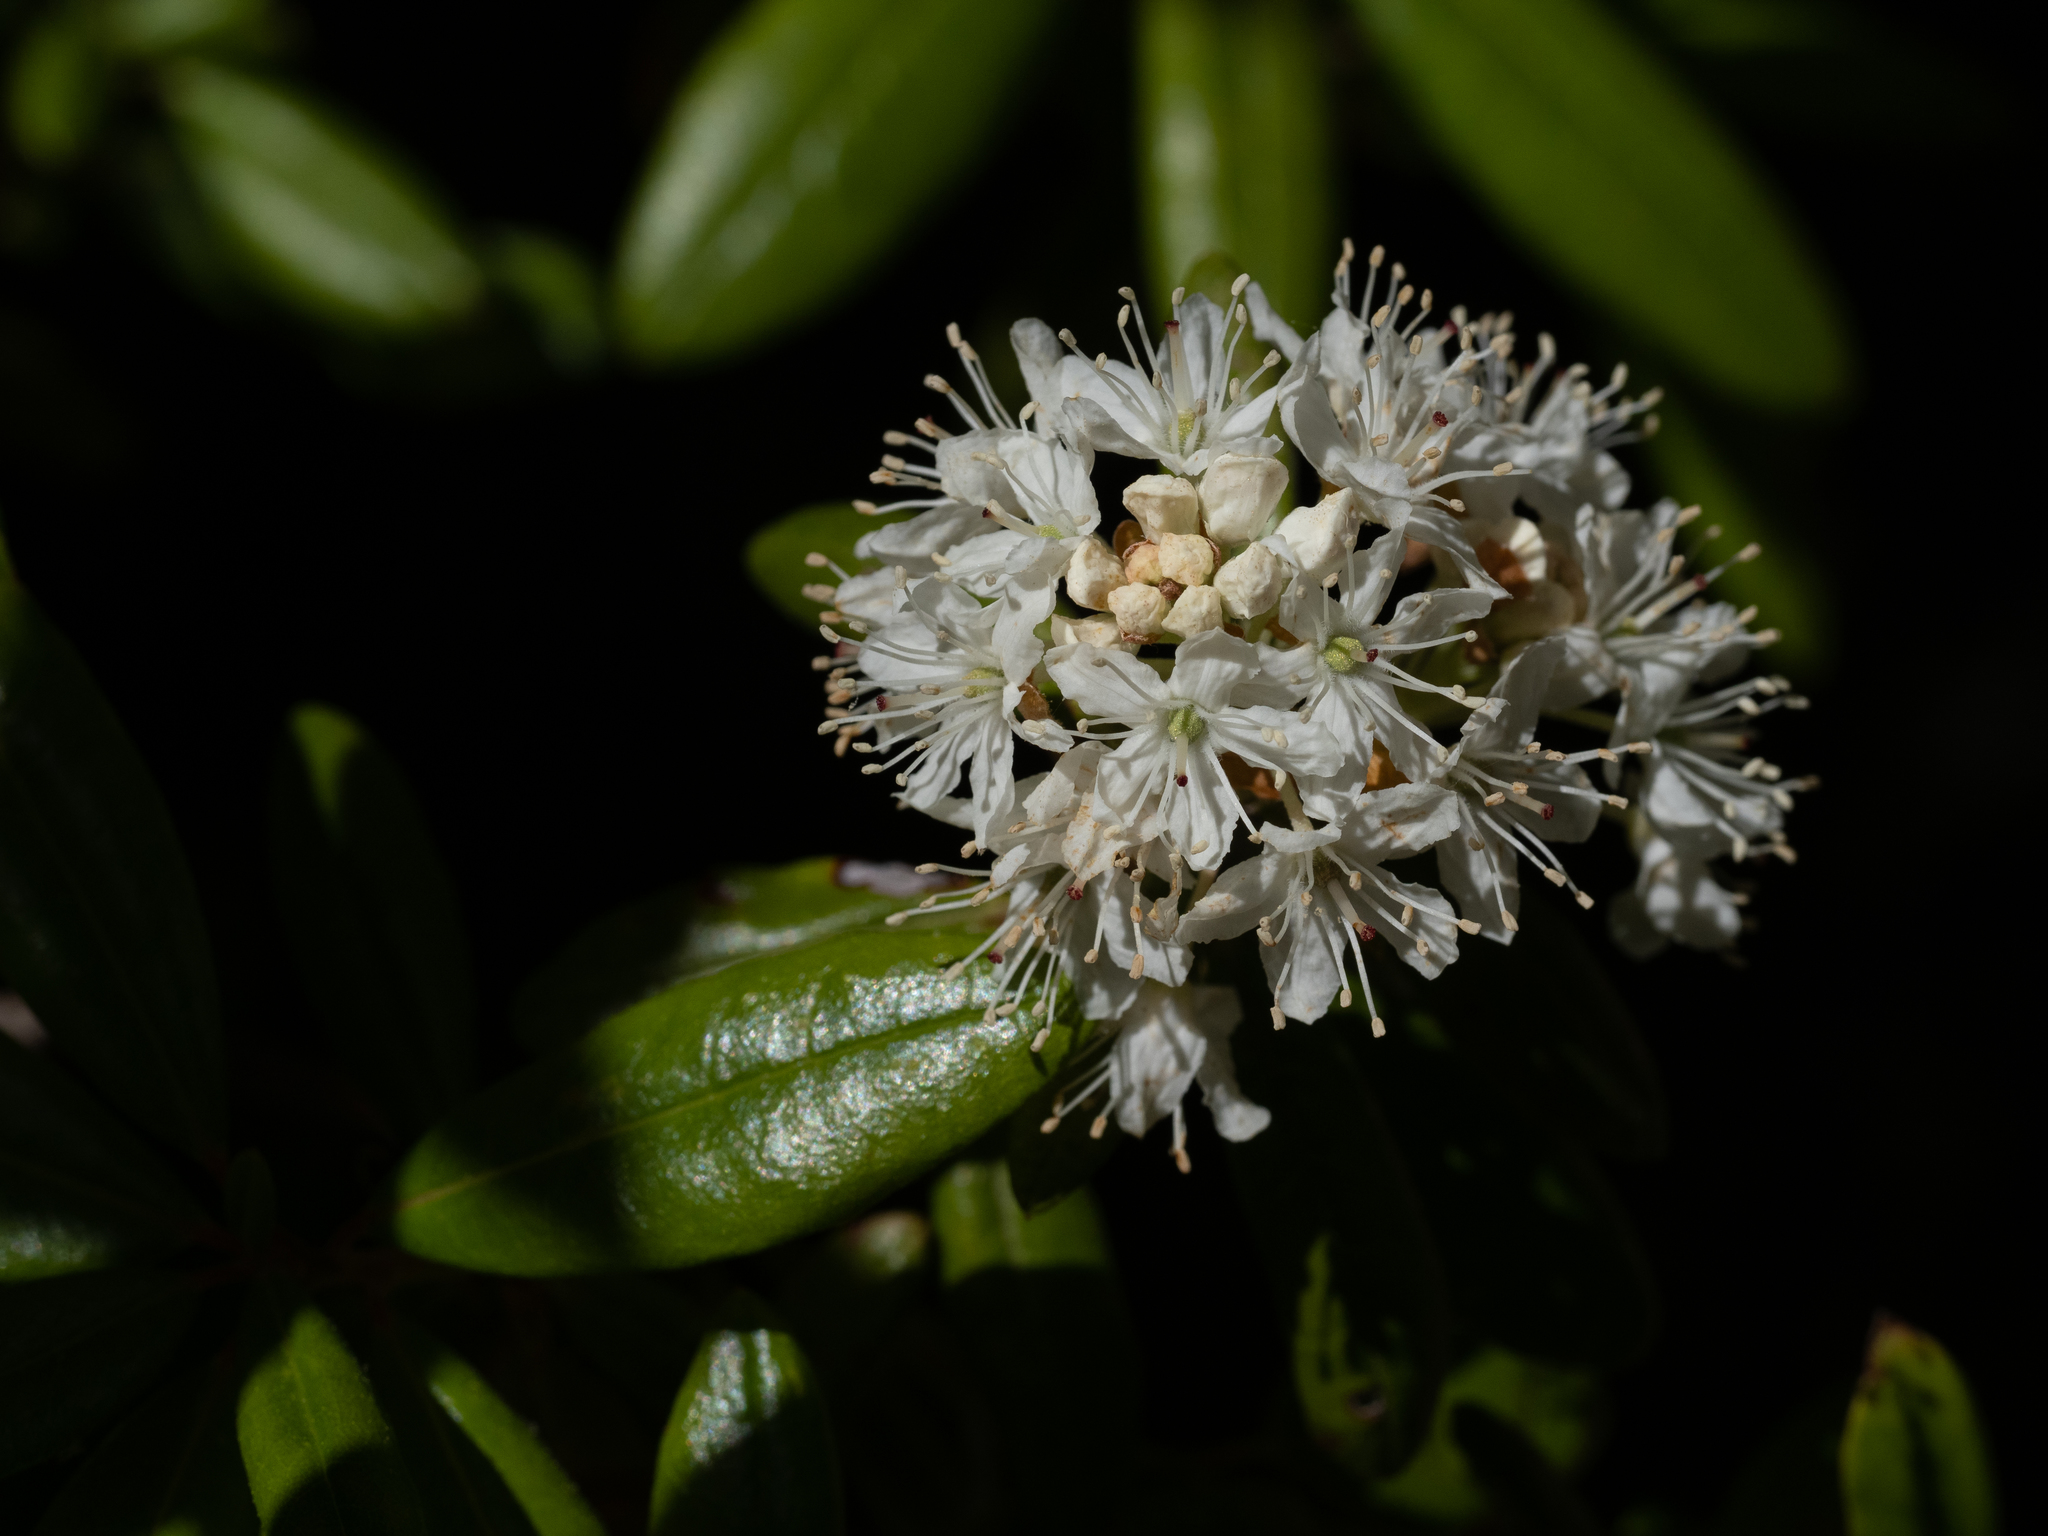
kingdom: Plantae
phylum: Tracheophyta
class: Magnoliopsida
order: Ericales
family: Ericaceae
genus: Rhododendron
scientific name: Rhododendron columbianum
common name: Western labrador tea
